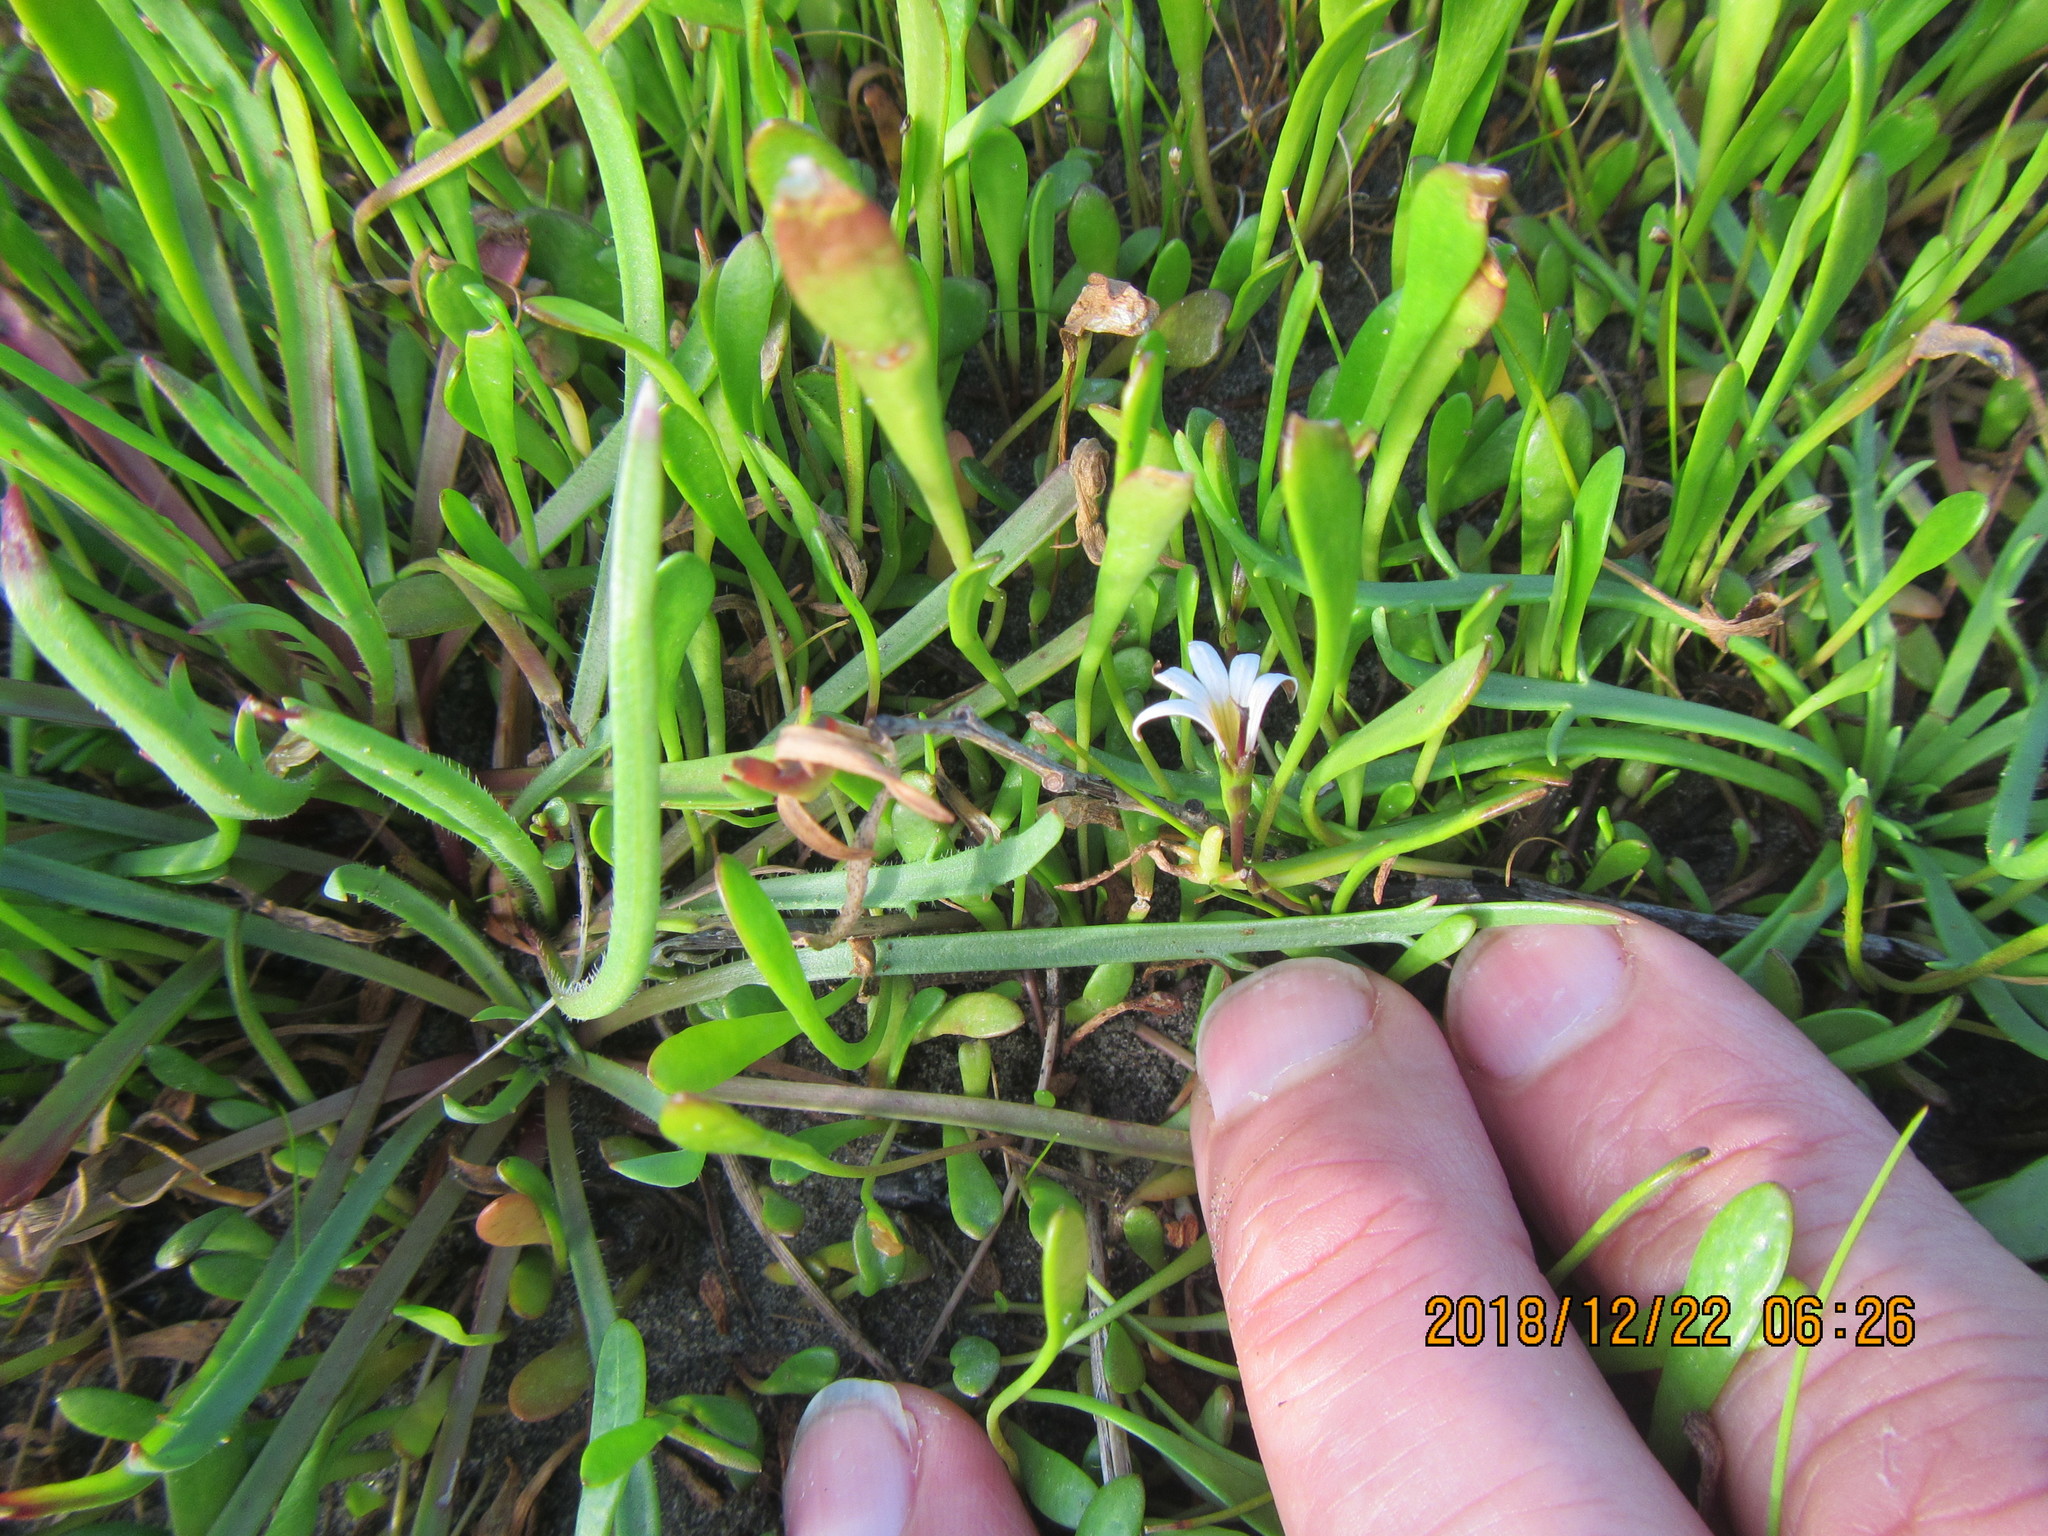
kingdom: Plantae
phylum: Tracheophyta
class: Magnoliopsida
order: Asterales
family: Goodeniaceae
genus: Goodenia
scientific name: Goodenia radicans
